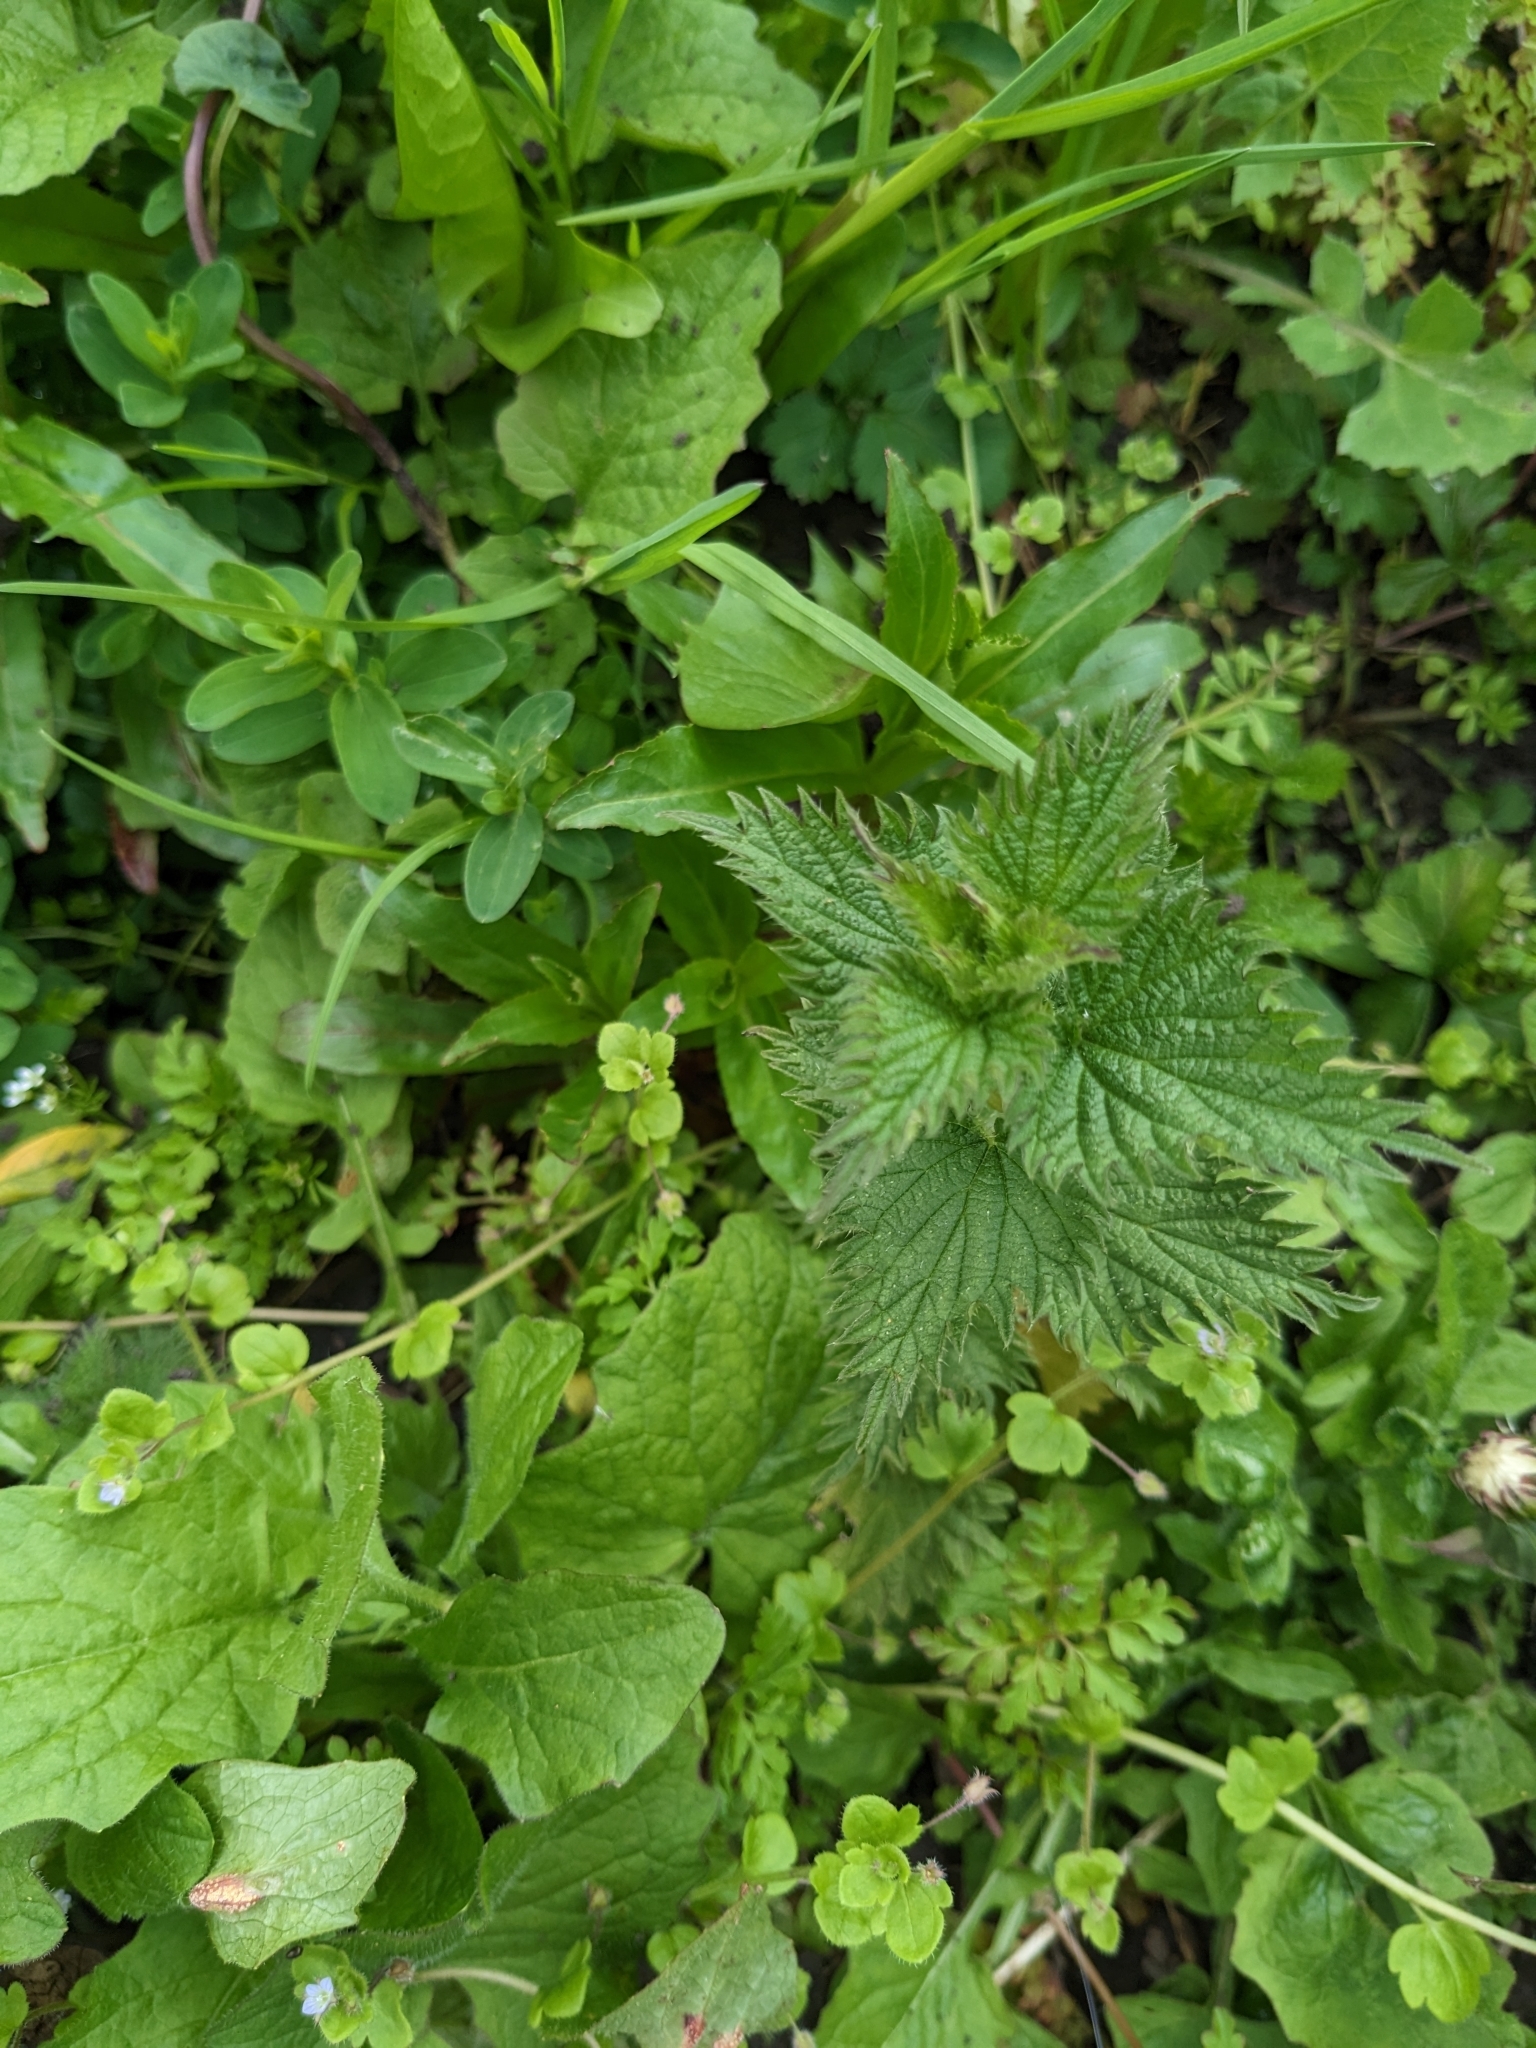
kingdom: Plantae
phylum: Tracheophyta
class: Magnoliopsida
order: Rosales
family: Urticaceae
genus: Urtica
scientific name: Urtica dioica
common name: Common nettle
